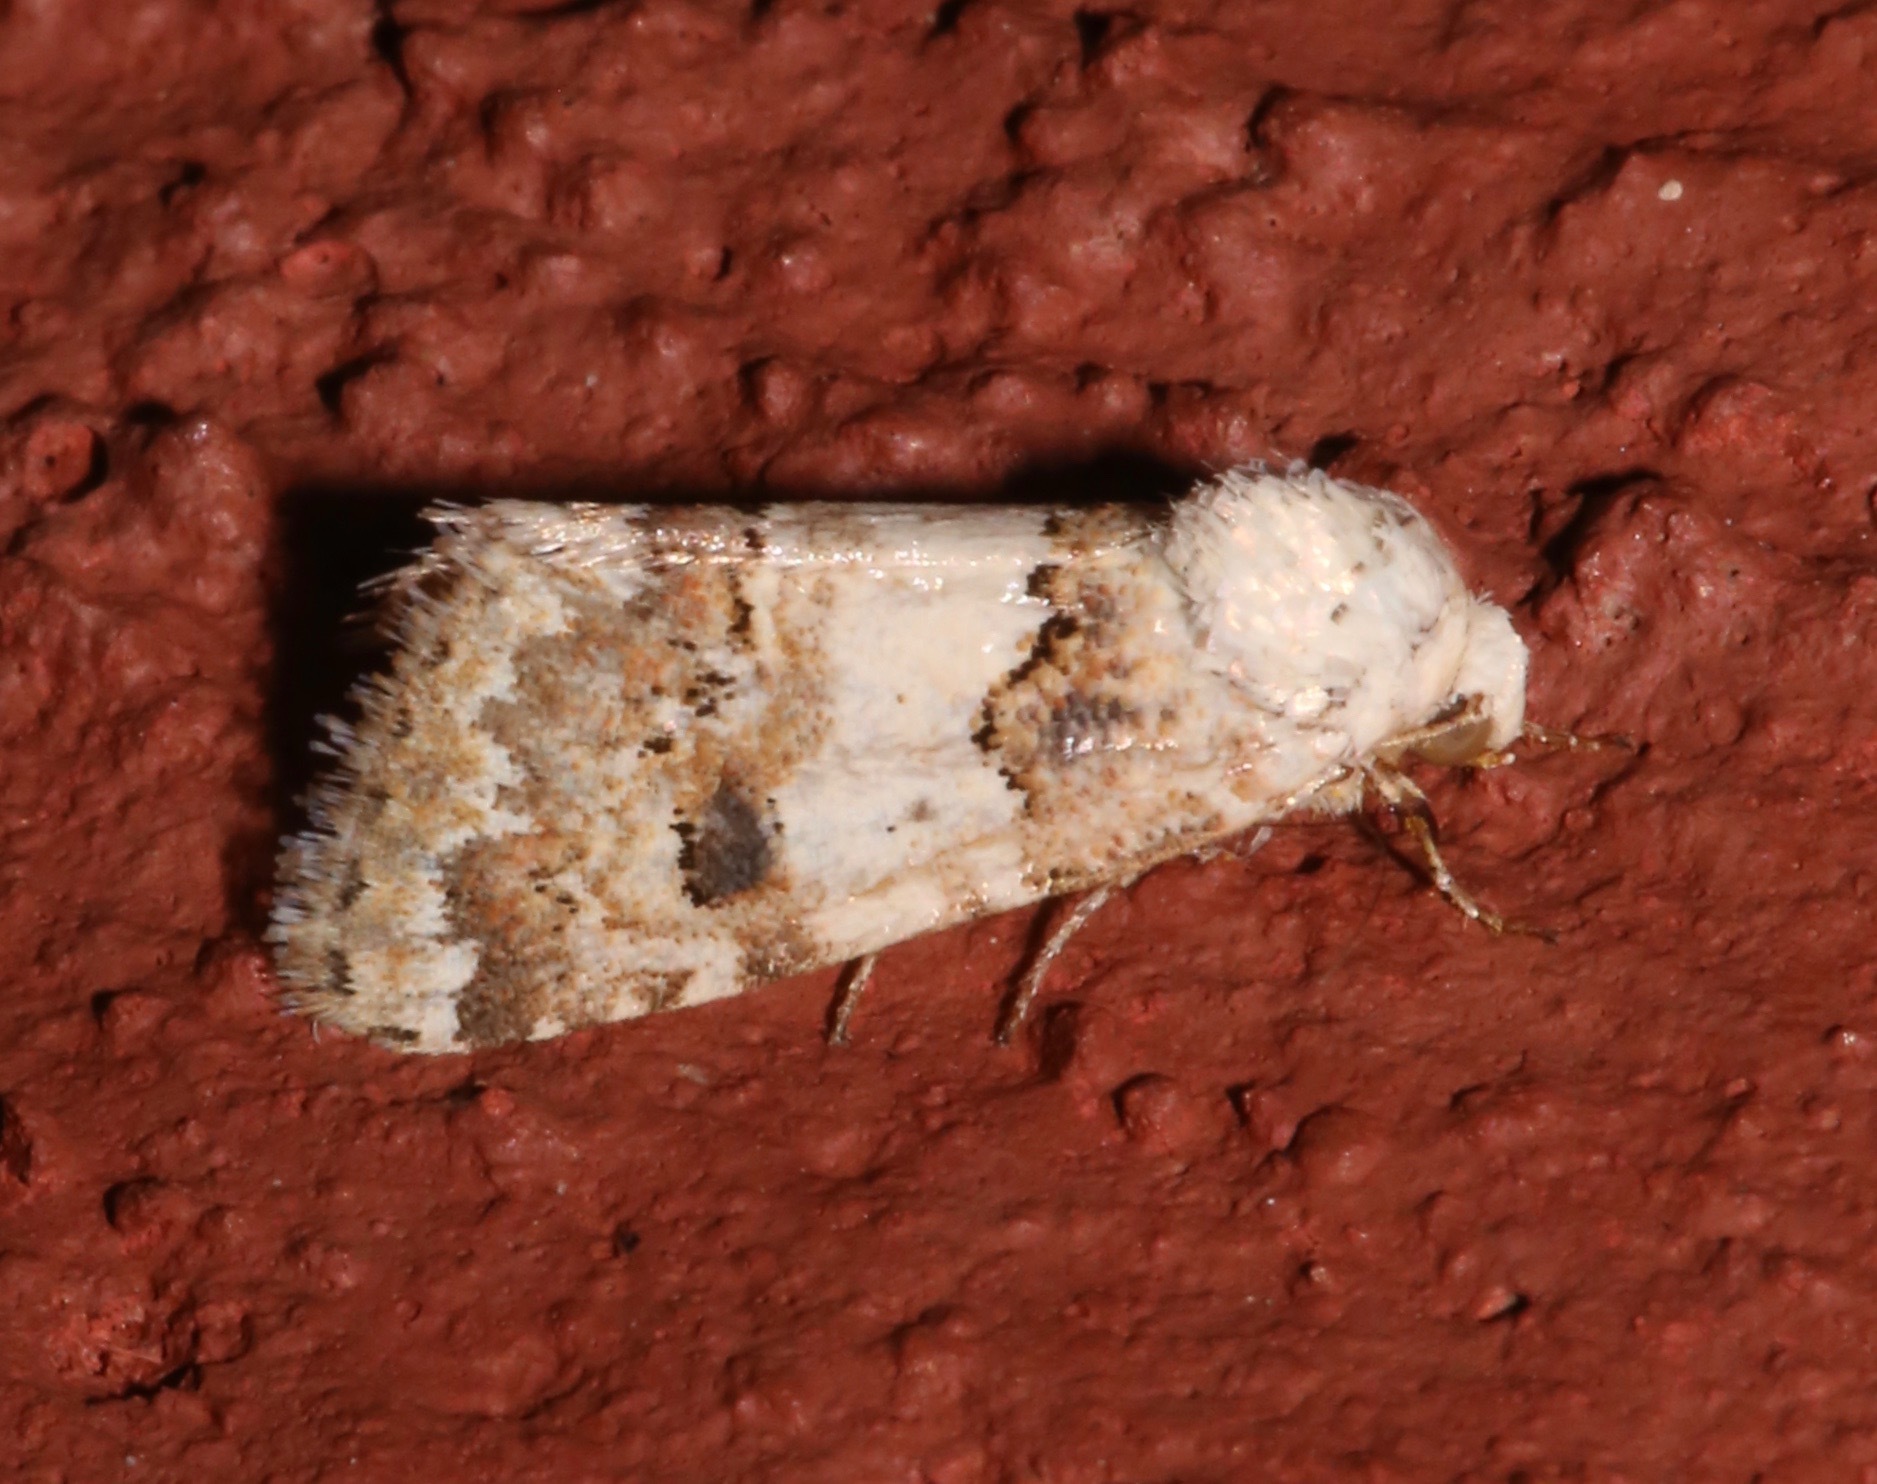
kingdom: Animalia
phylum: Arthropoda
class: Insecta
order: Lepidoptera
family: Noctuidae
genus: Schinia
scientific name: Schinia tertia
